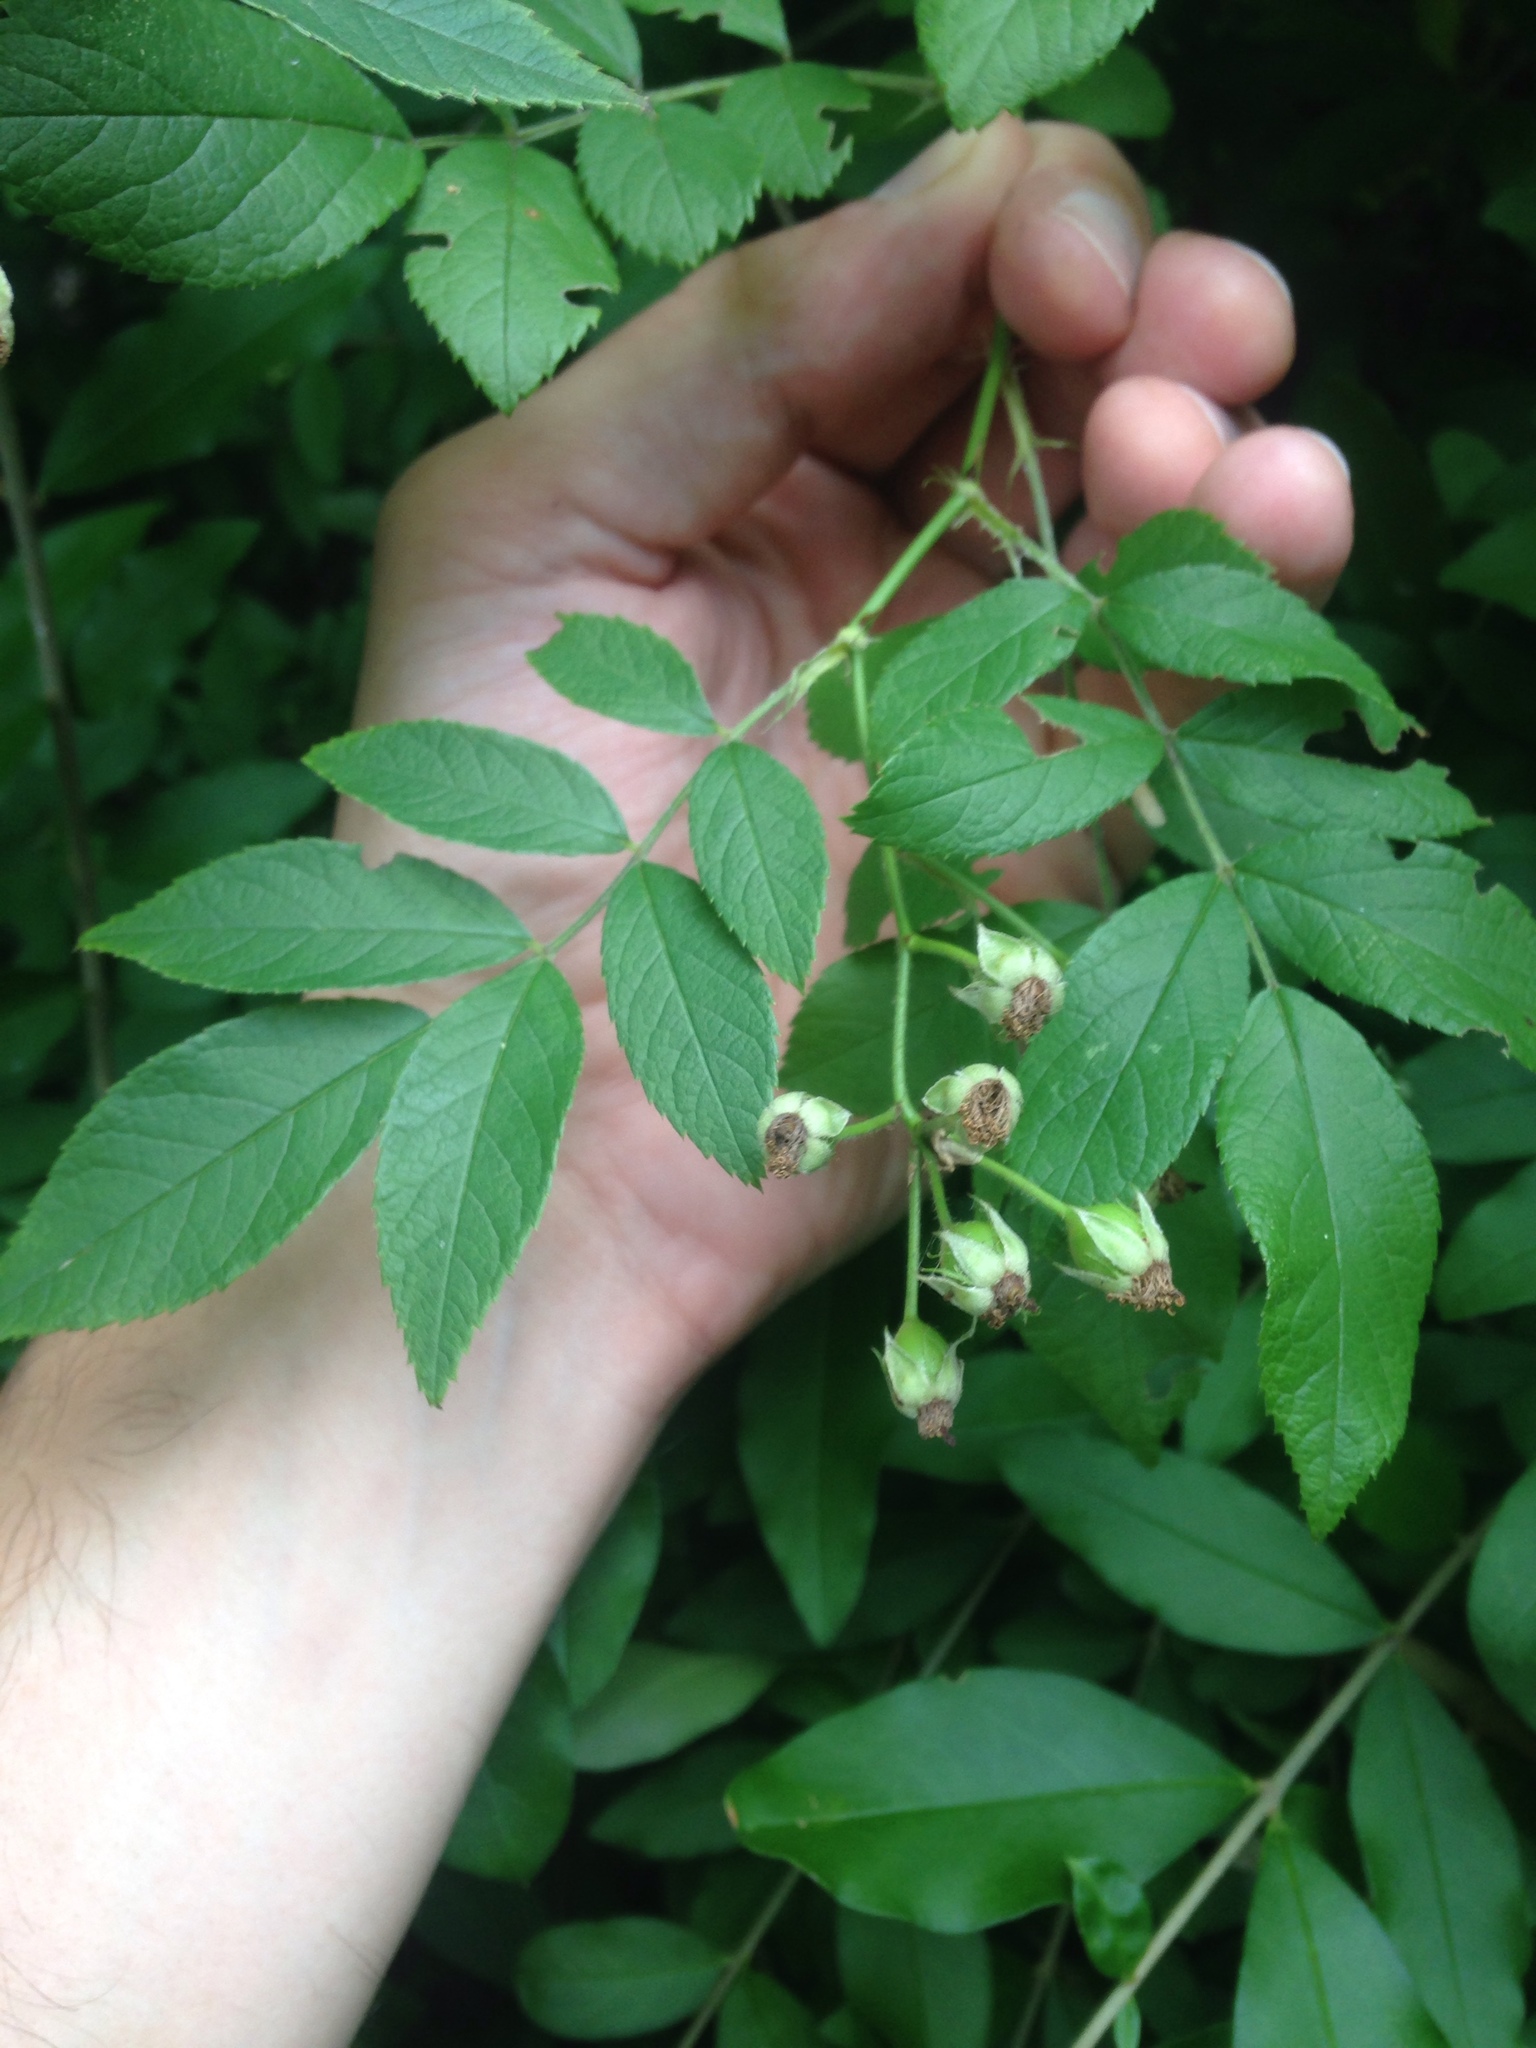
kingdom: Plantae
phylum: Tracheophyta
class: Magnoliopsida
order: Rosales
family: Rosaceae
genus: Rosa
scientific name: Rosa multiflora
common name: Multiflora rose
